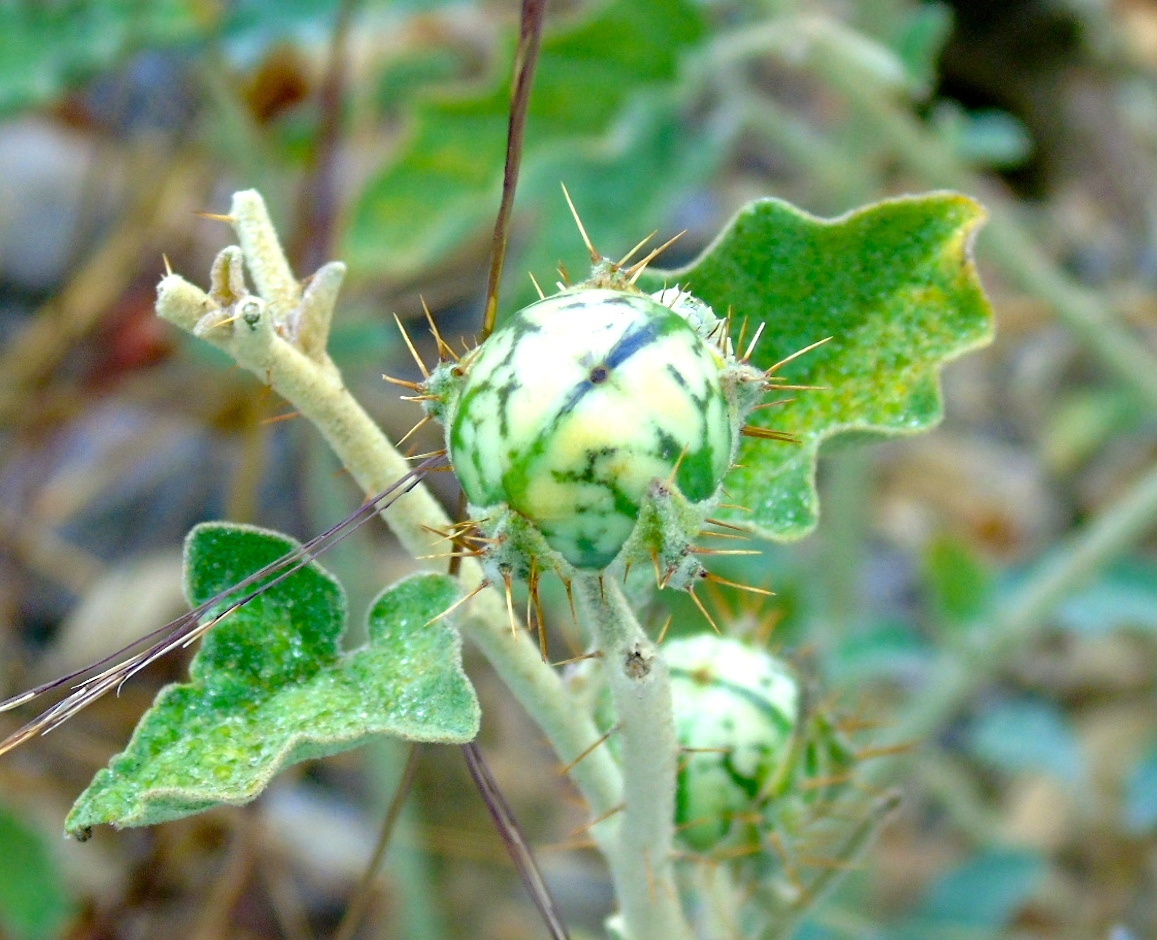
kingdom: Plantae
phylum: Tracheophyta
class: Magnoliopsida
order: Solanales
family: Solanaceae
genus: Solanum
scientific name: Solanum houstonii
